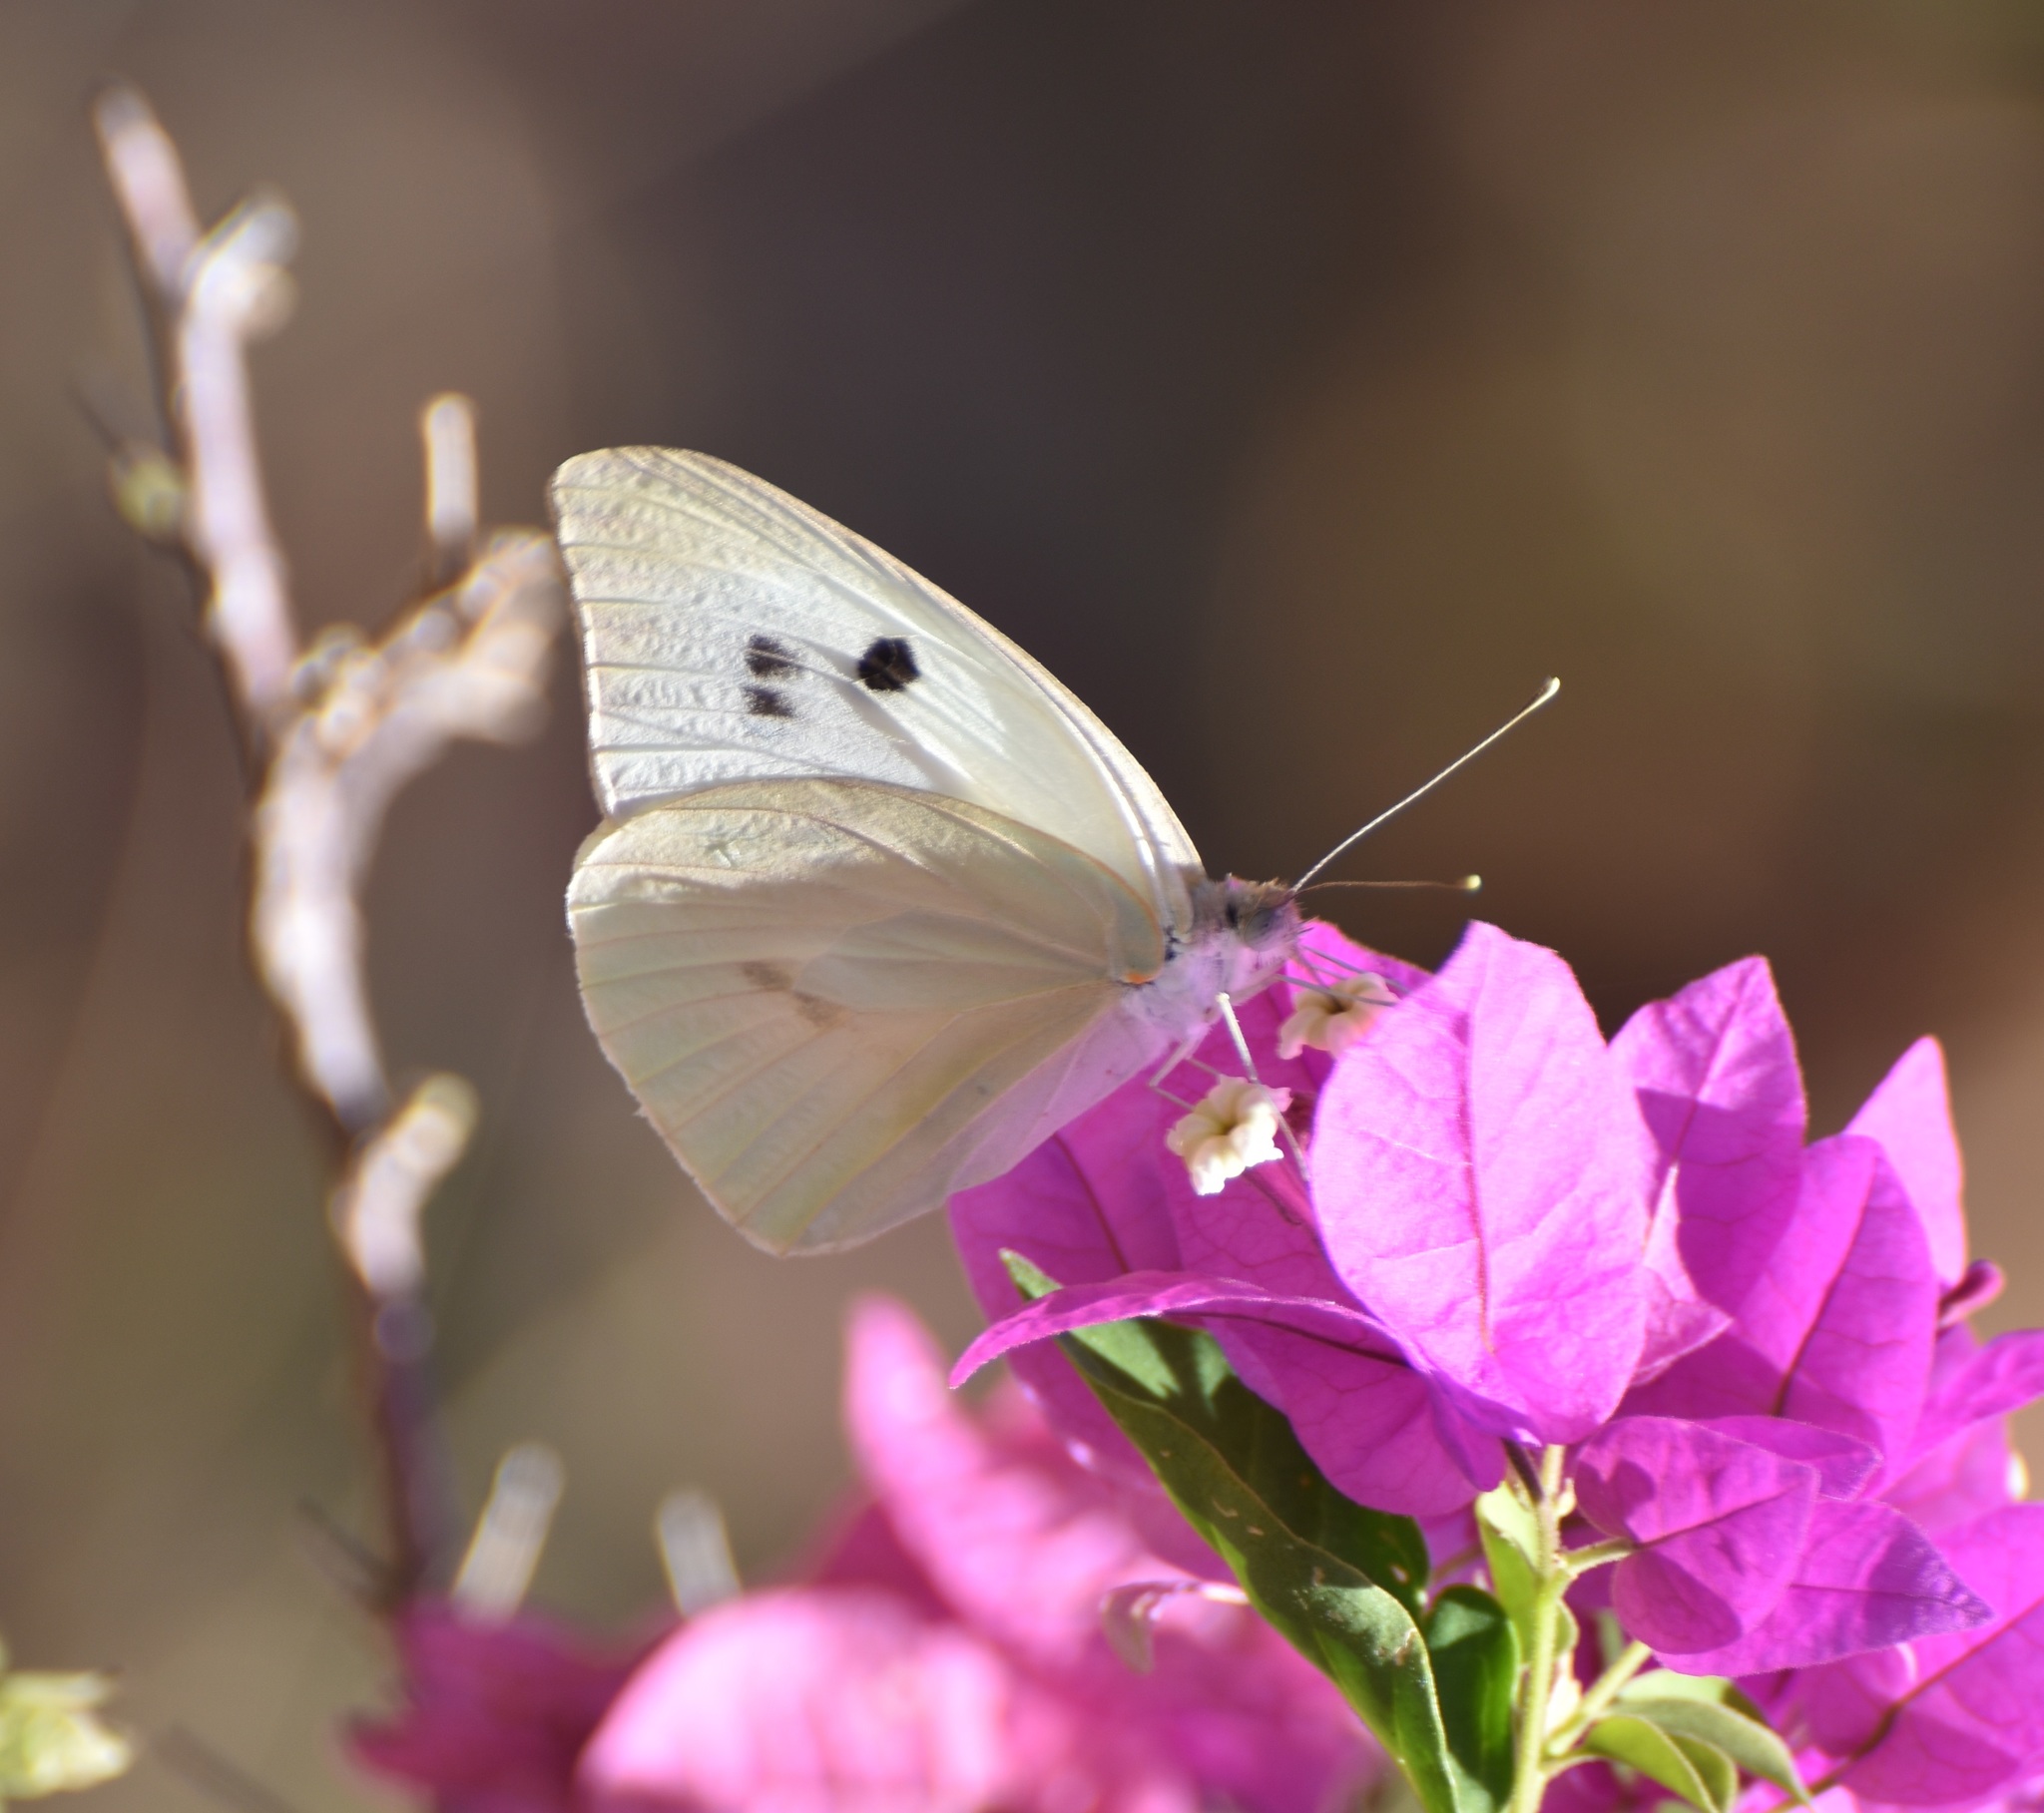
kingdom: Animalia
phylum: Arthropoda
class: Insecta
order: Lepidoptera
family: Pieridae
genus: Ganyra
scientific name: Ganyra josephina
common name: Giant white
